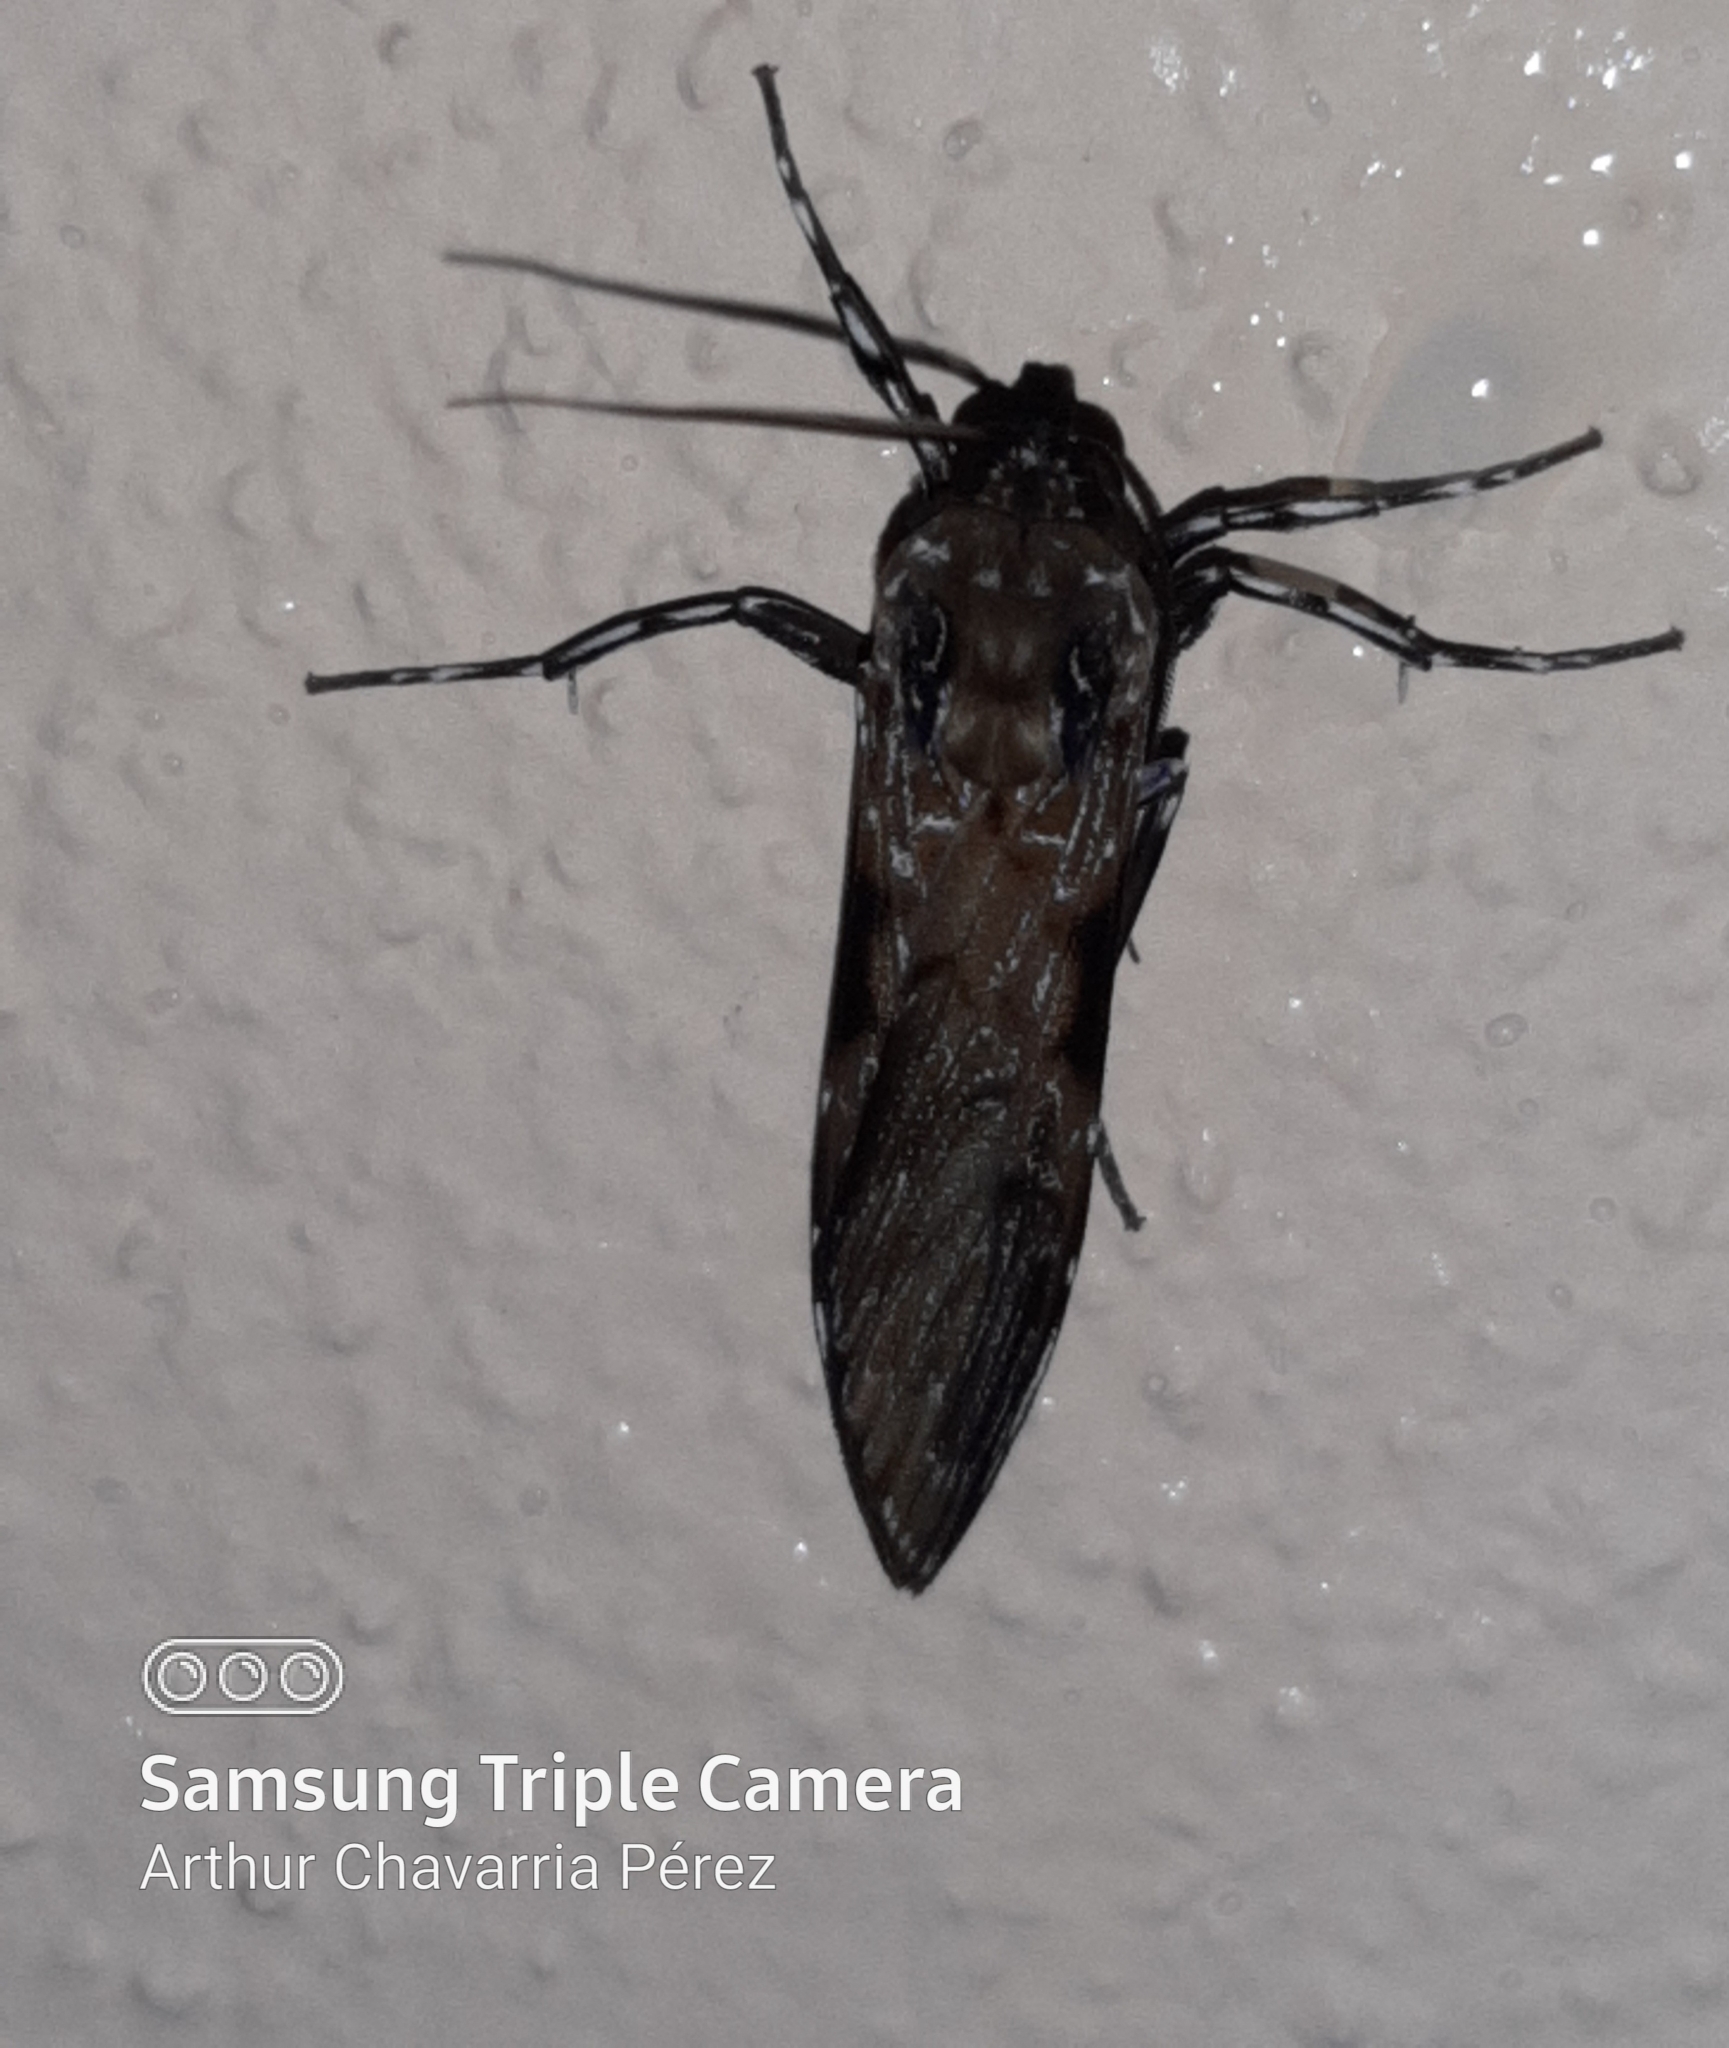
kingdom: Animalia
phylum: Arthropoda
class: Insecta
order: Lepidoptera
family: Erebidae
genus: Hyaleucerea
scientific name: Hyaleucerea gigantea
